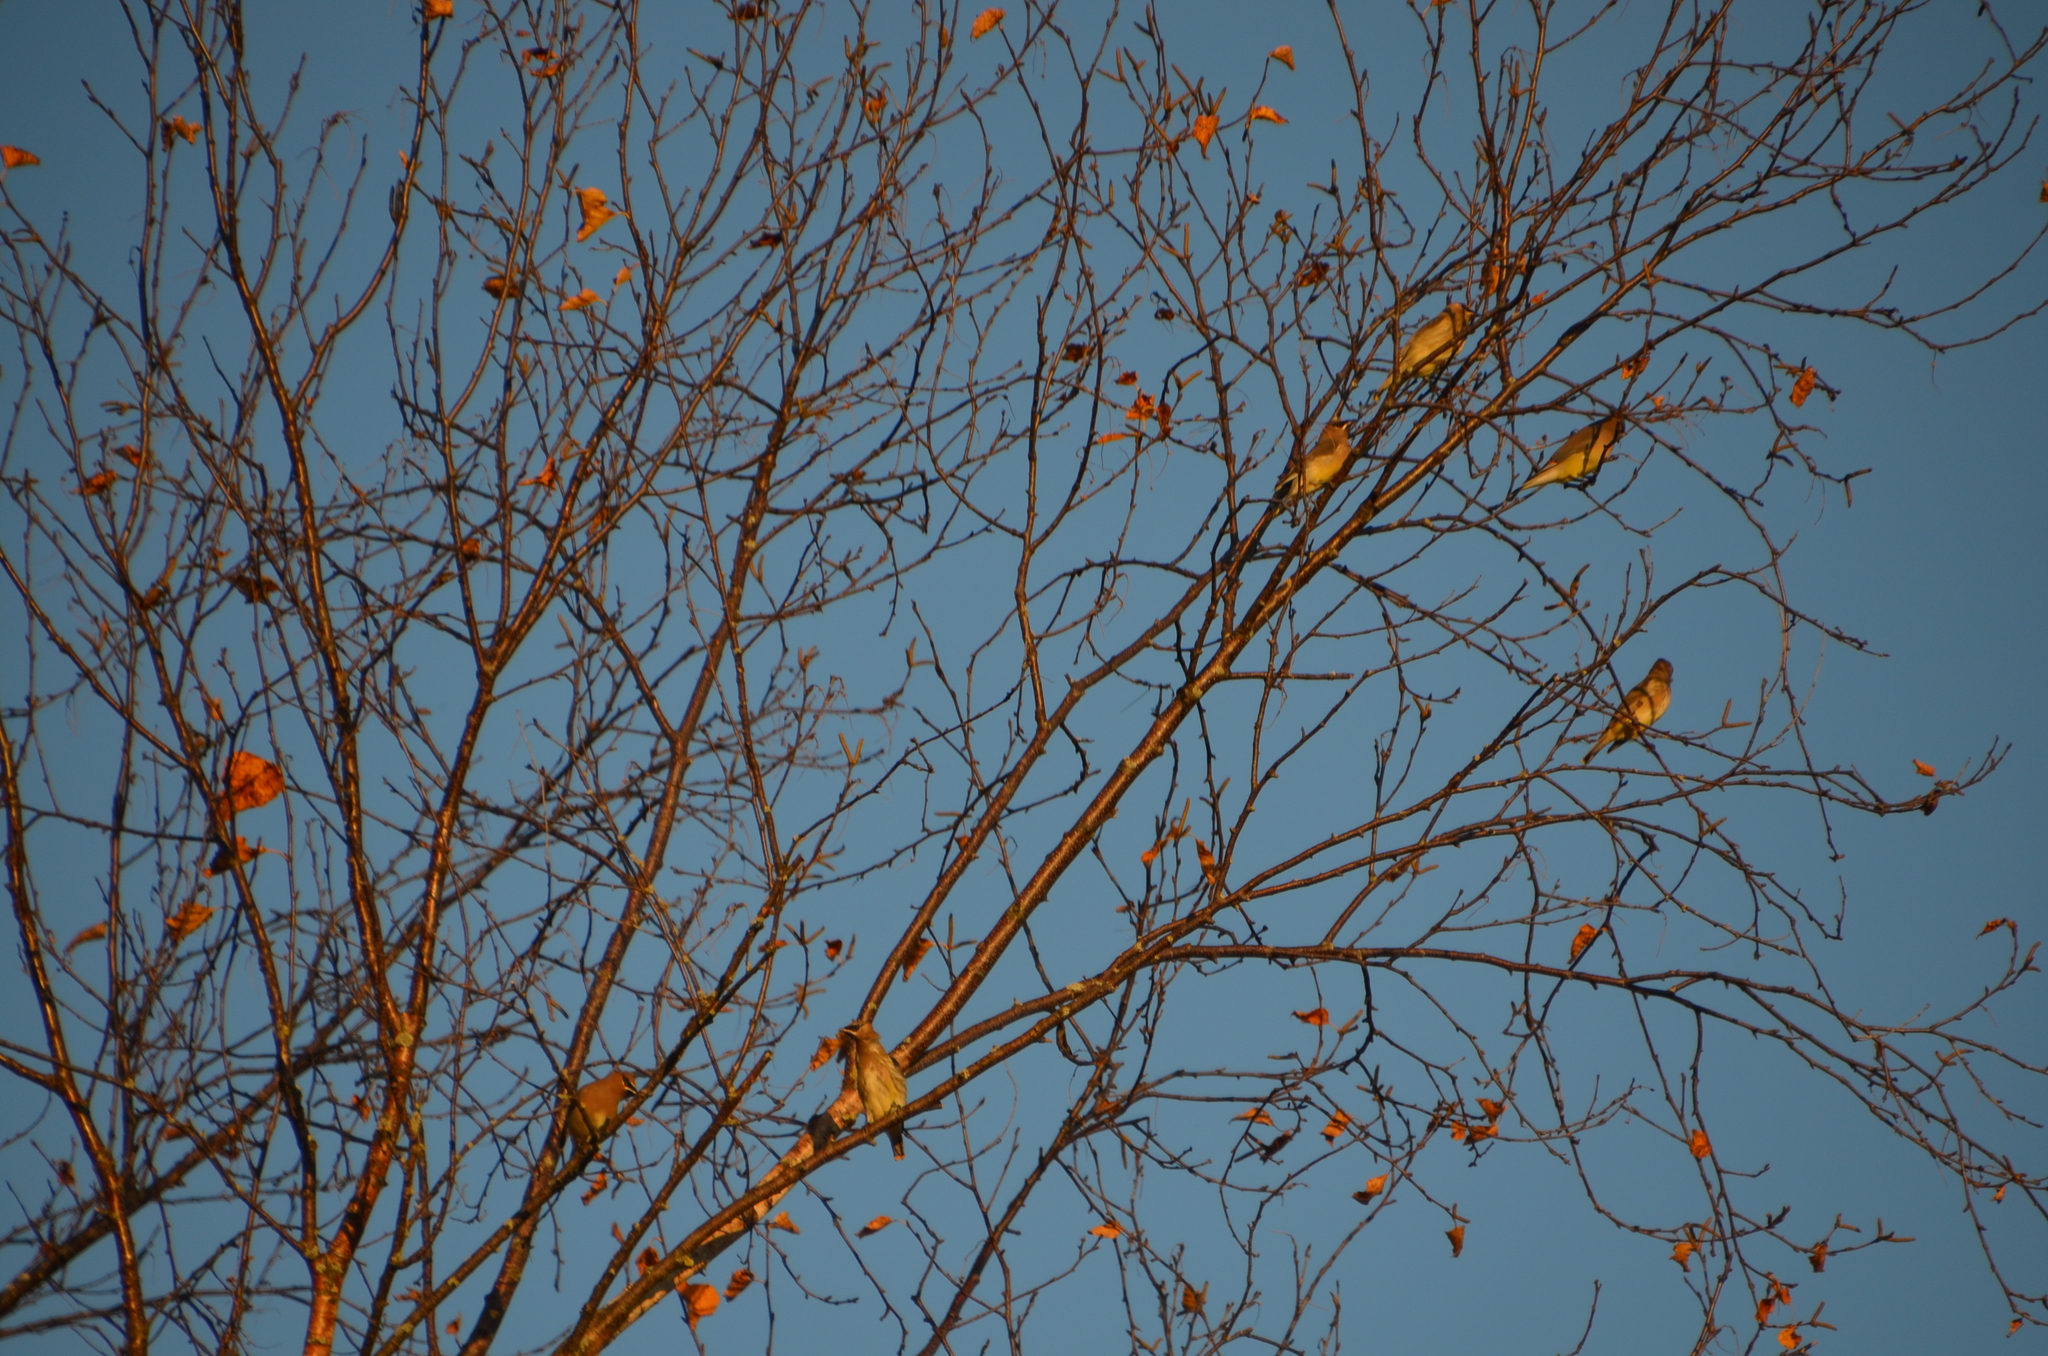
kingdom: Animalia
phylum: Chordata
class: Aves
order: Passeriformes
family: Bombycillidae
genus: Bombycilla
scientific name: Bombycilla cedrorum
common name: Cedar waxwing
